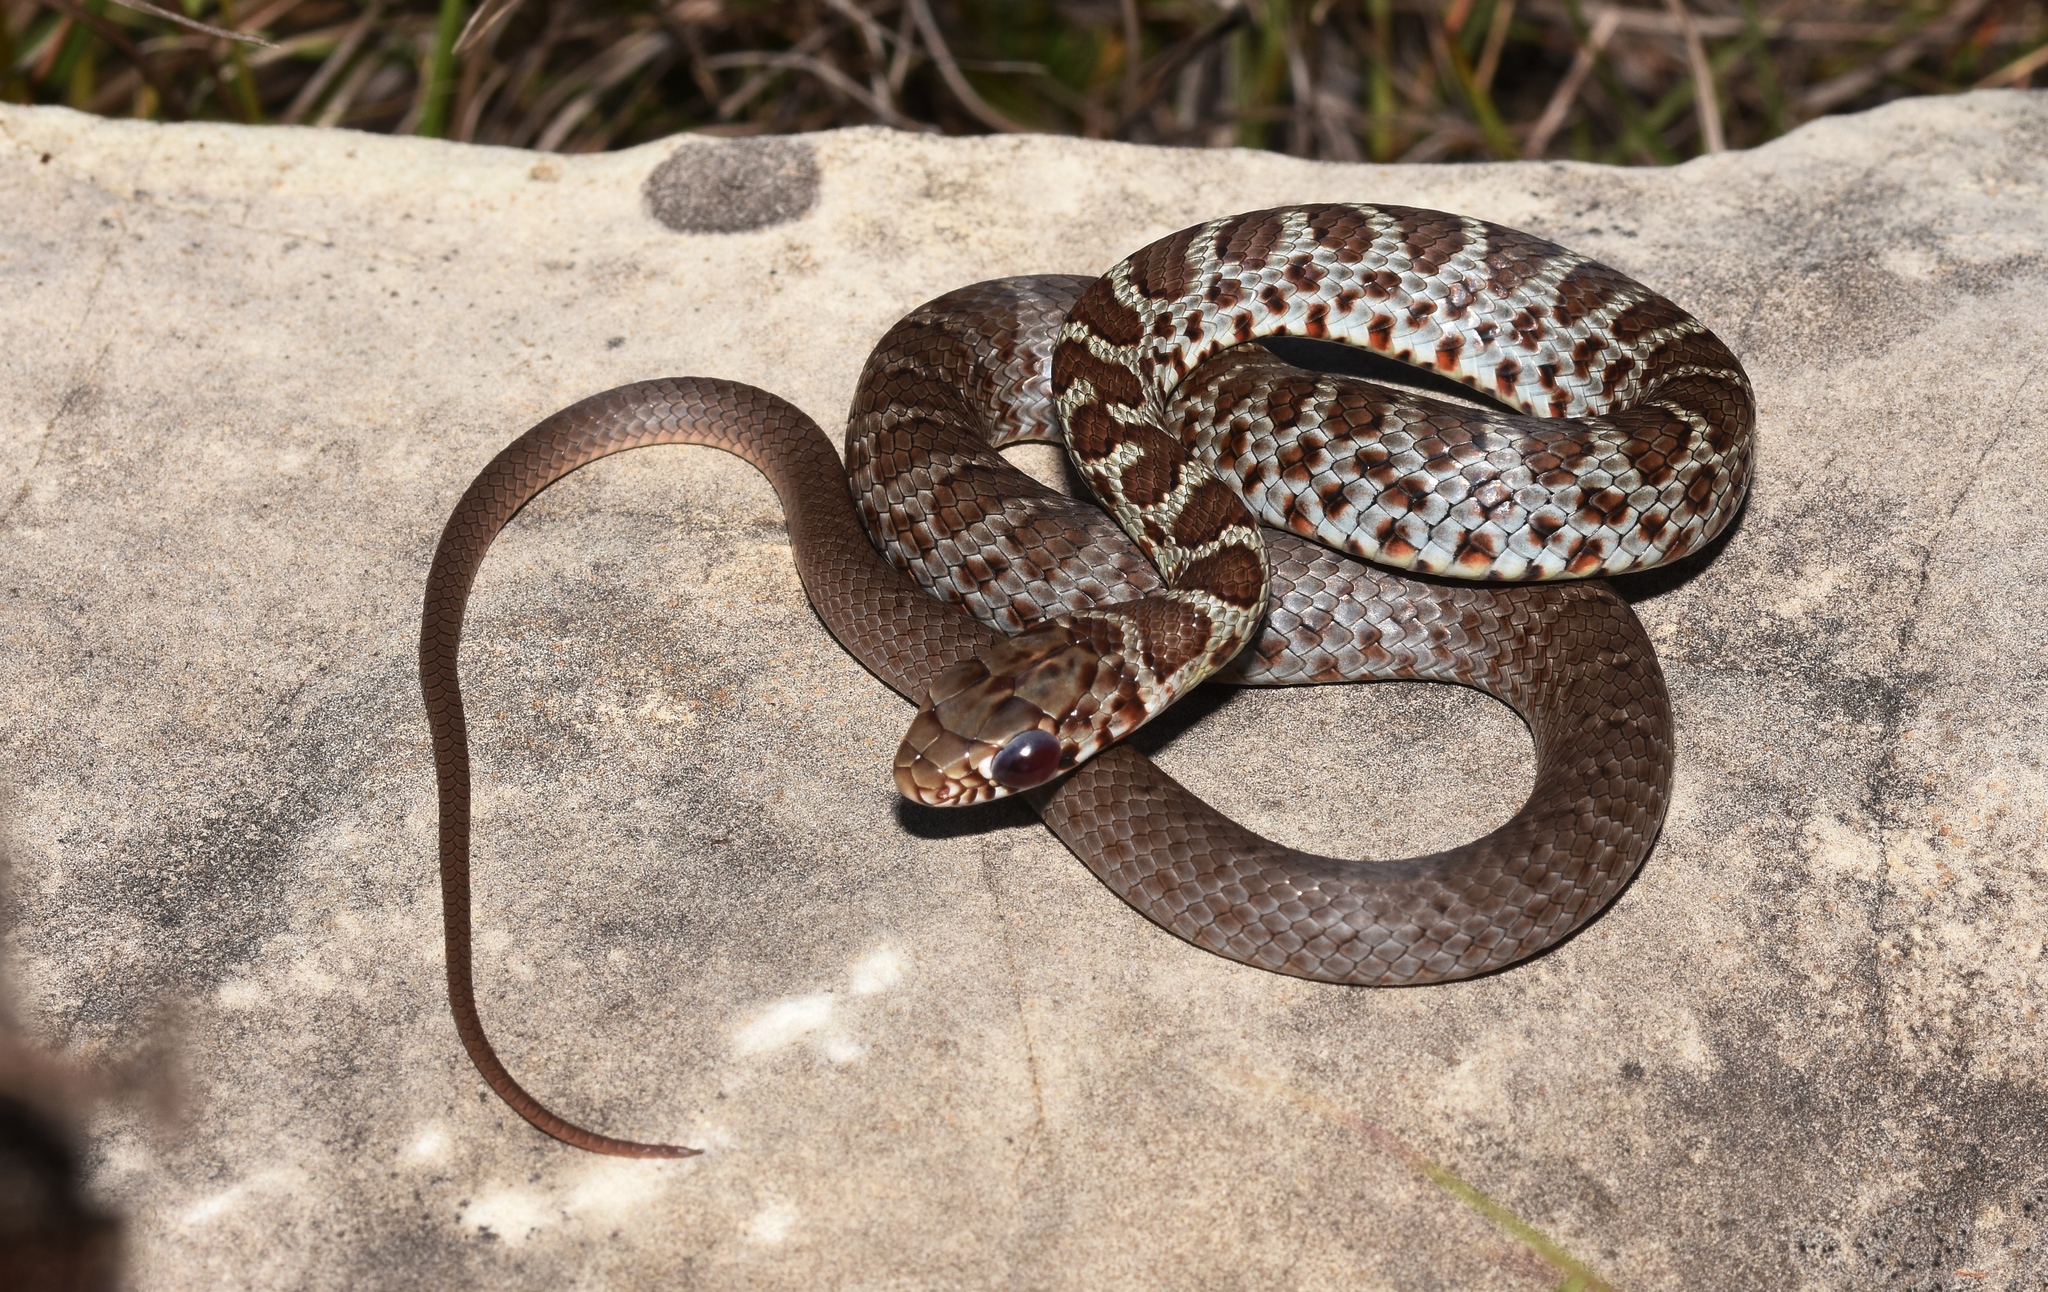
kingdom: Animalia
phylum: Chordata
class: Squamata
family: Colubridae
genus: Coluber
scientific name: Coluber constrictor
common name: Eastern racer
